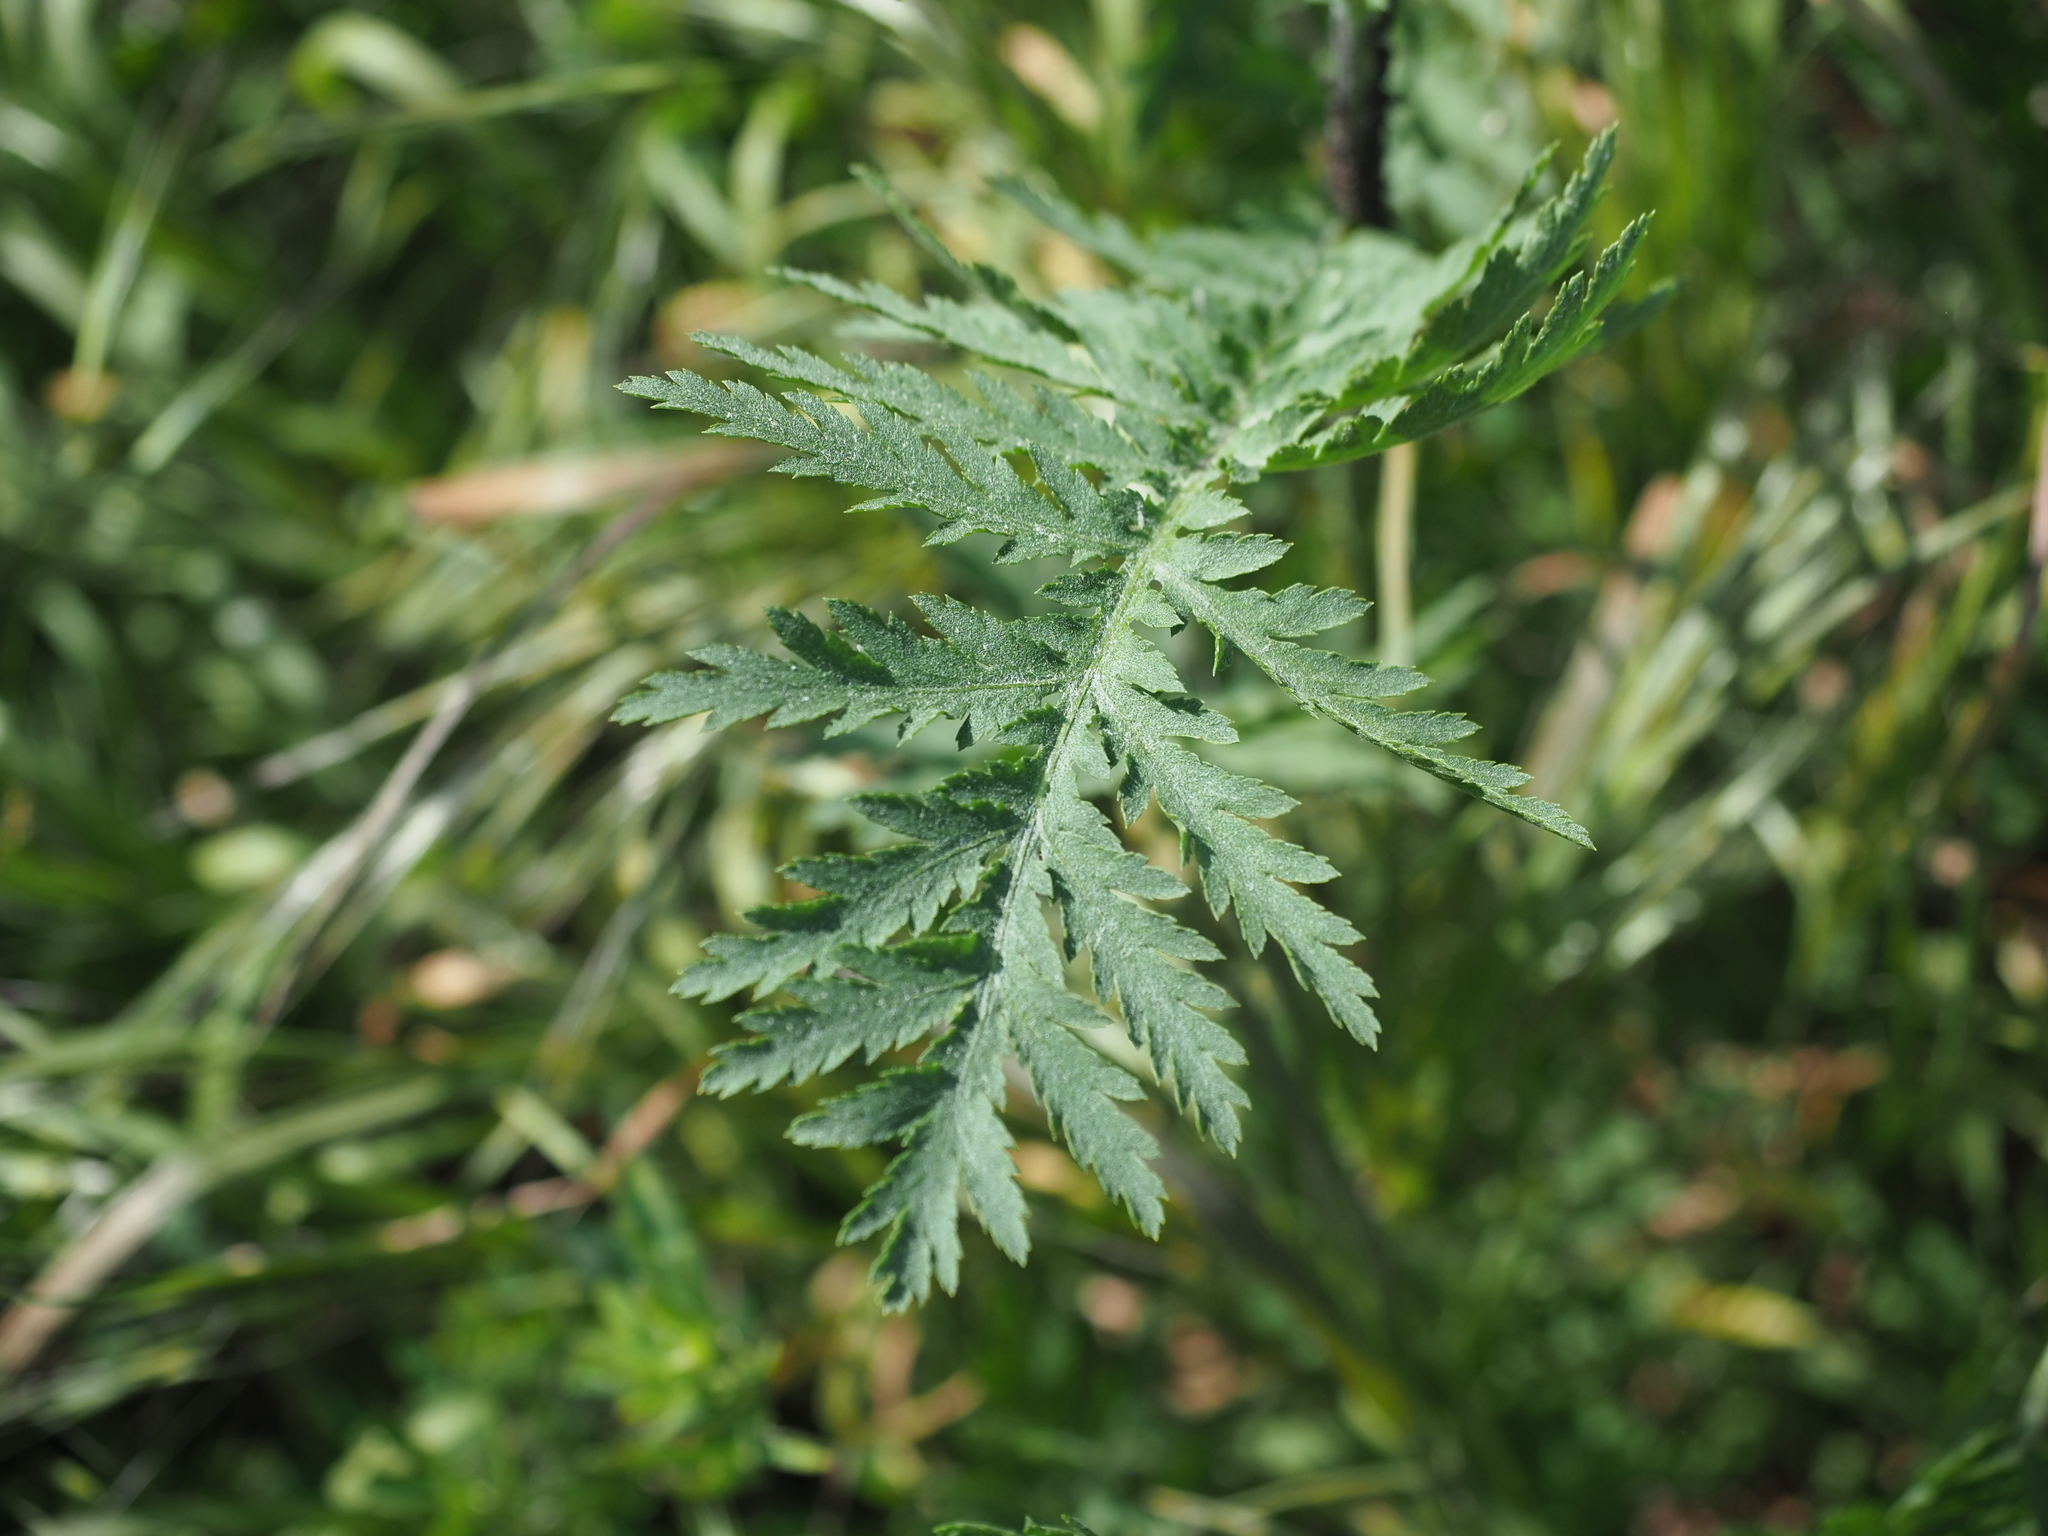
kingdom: Plantae
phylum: Tracheophyta
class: Magnoliopsida
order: Asterales
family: Asteraceae
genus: Tanacetum
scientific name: Tanacetum vulgare
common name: Common tansy
